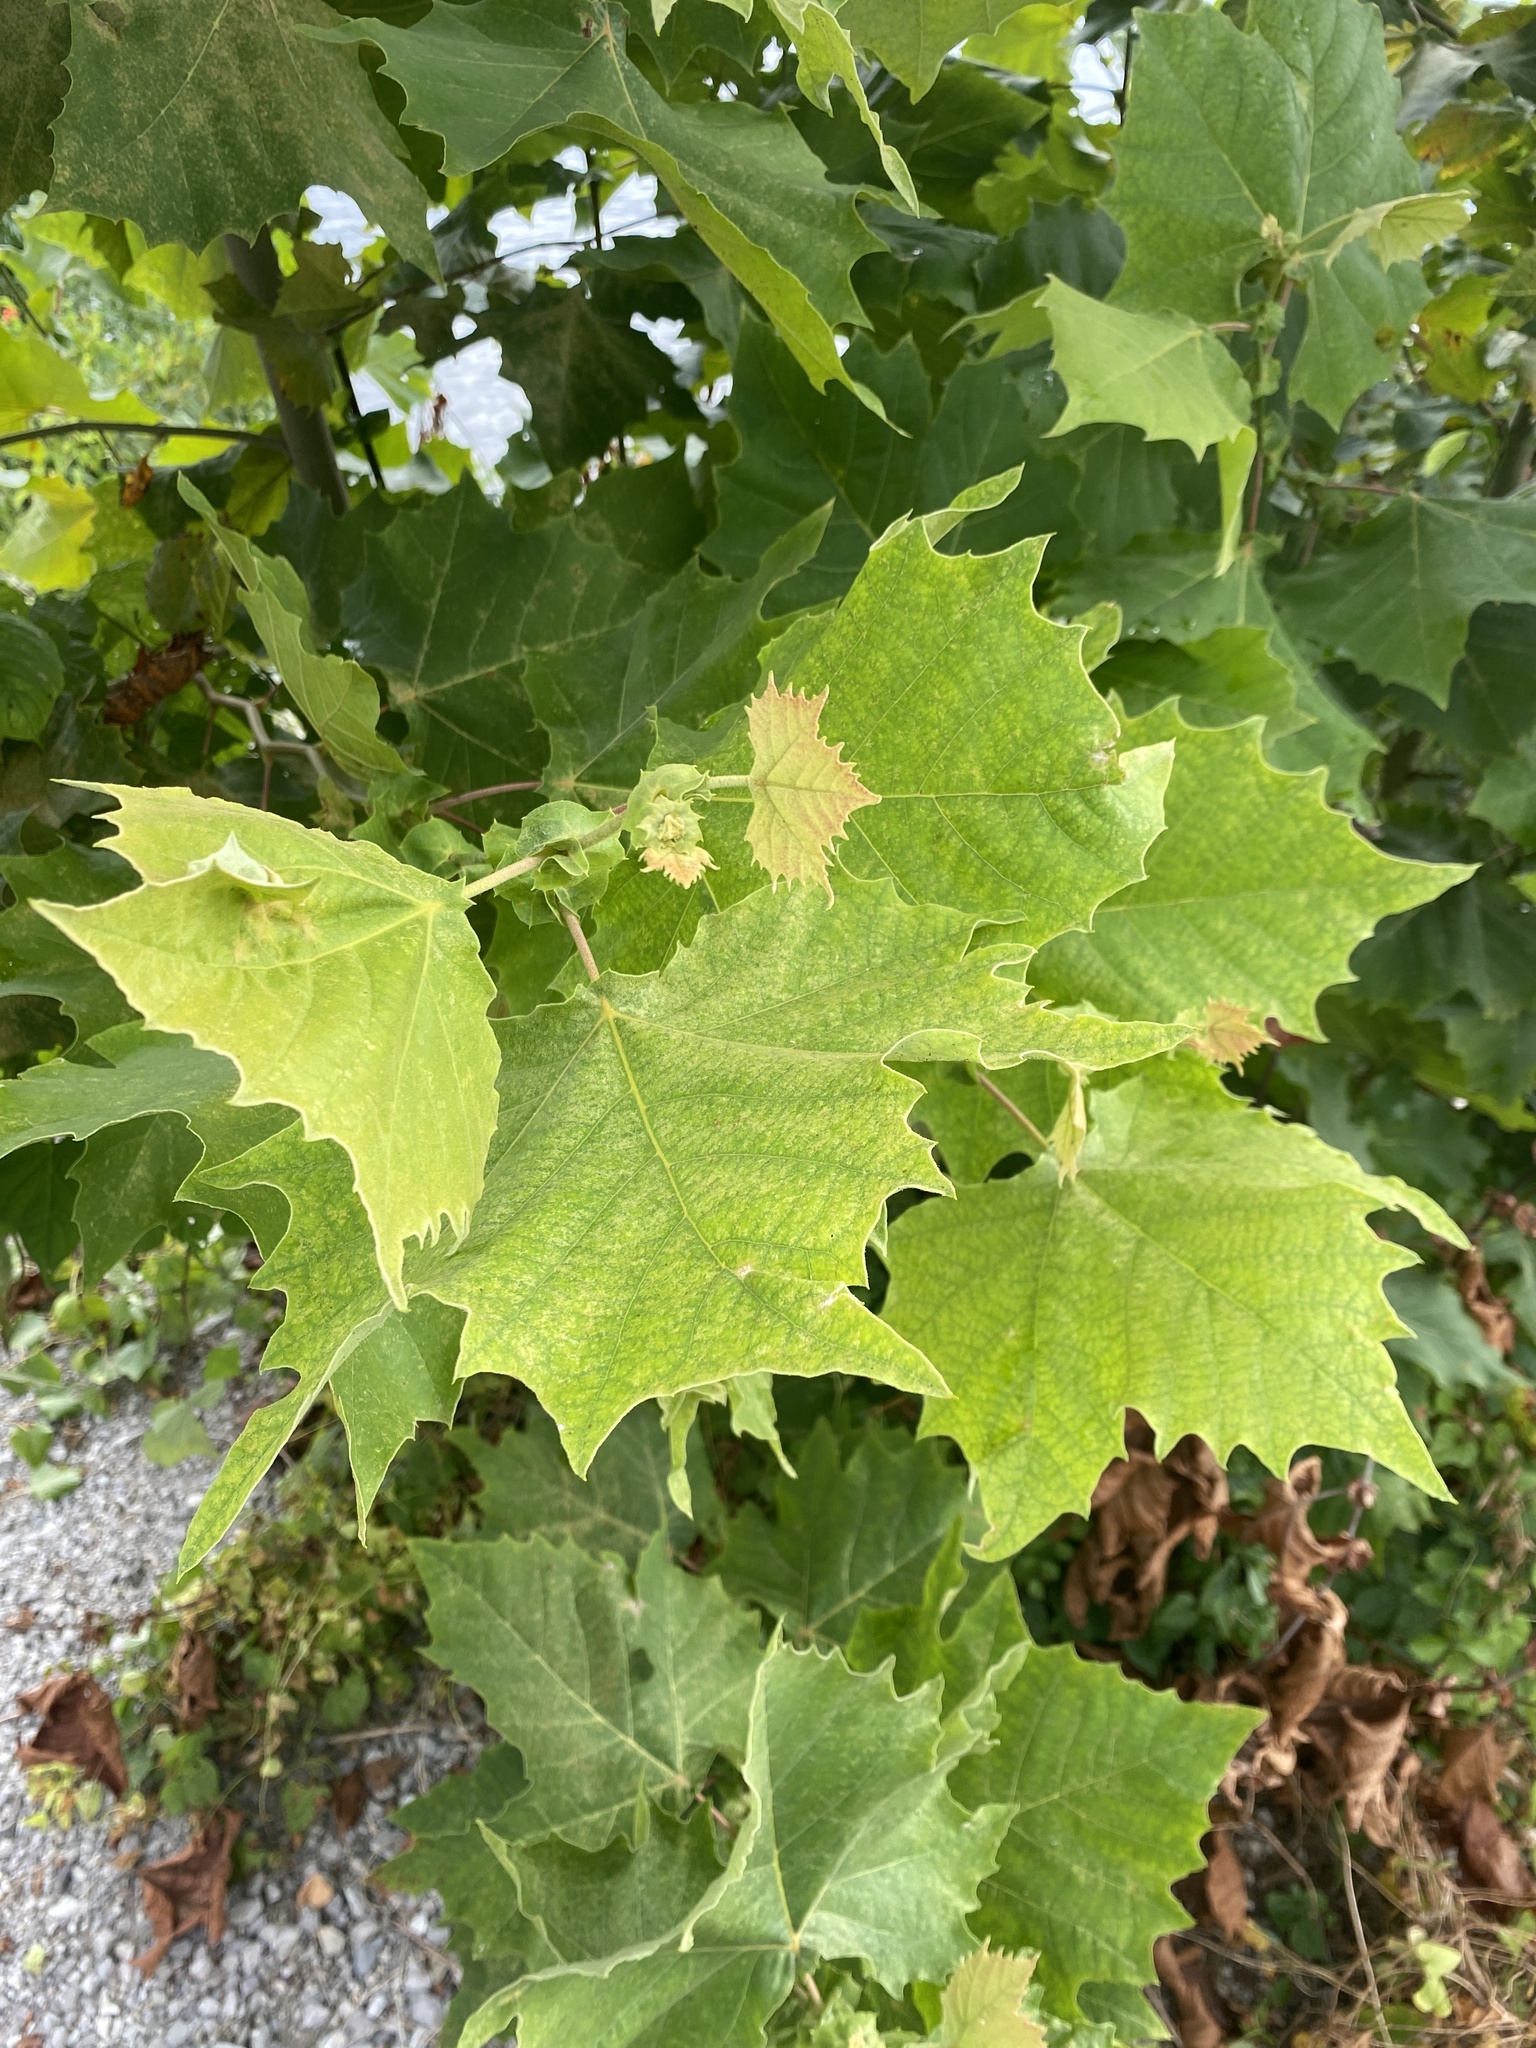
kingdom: Plantae
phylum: Tracheophyta
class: Magnoliopsida
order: Proteales
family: Platanaceae
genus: Platanus
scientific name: Platanus occidentalis
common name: American sycamore
